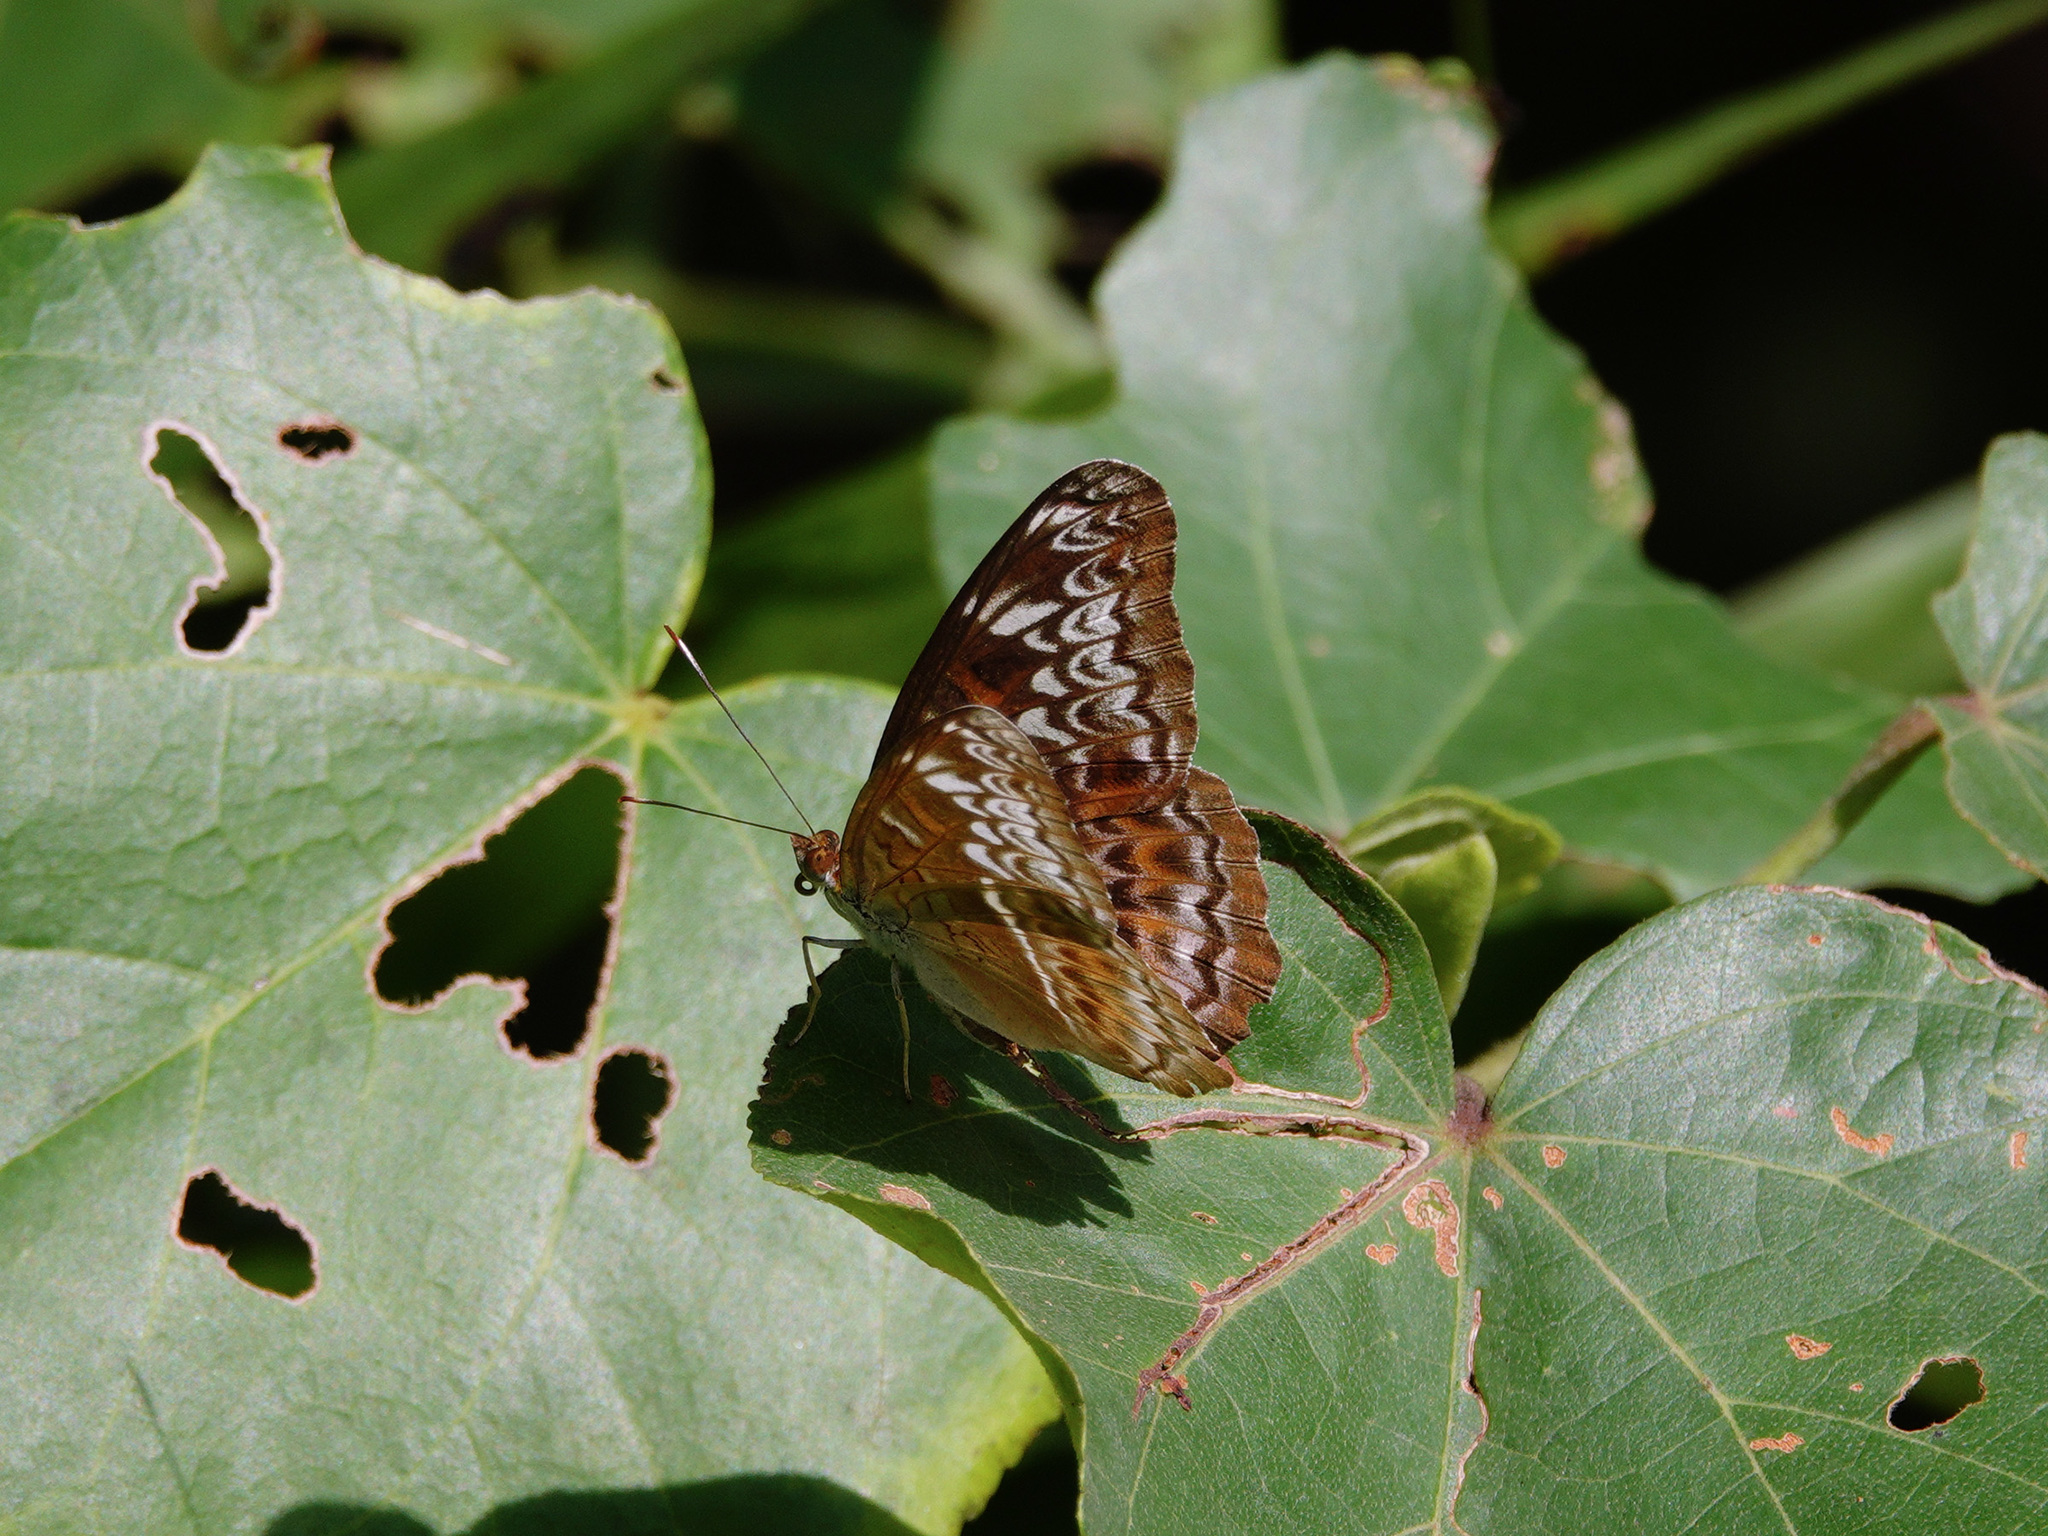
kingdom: Animalia
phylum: Arthropoda
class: Insecta
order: Lepidoptera
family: Nymphalidae
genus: Lebadea
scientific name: Lebadea martha
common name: Knight
